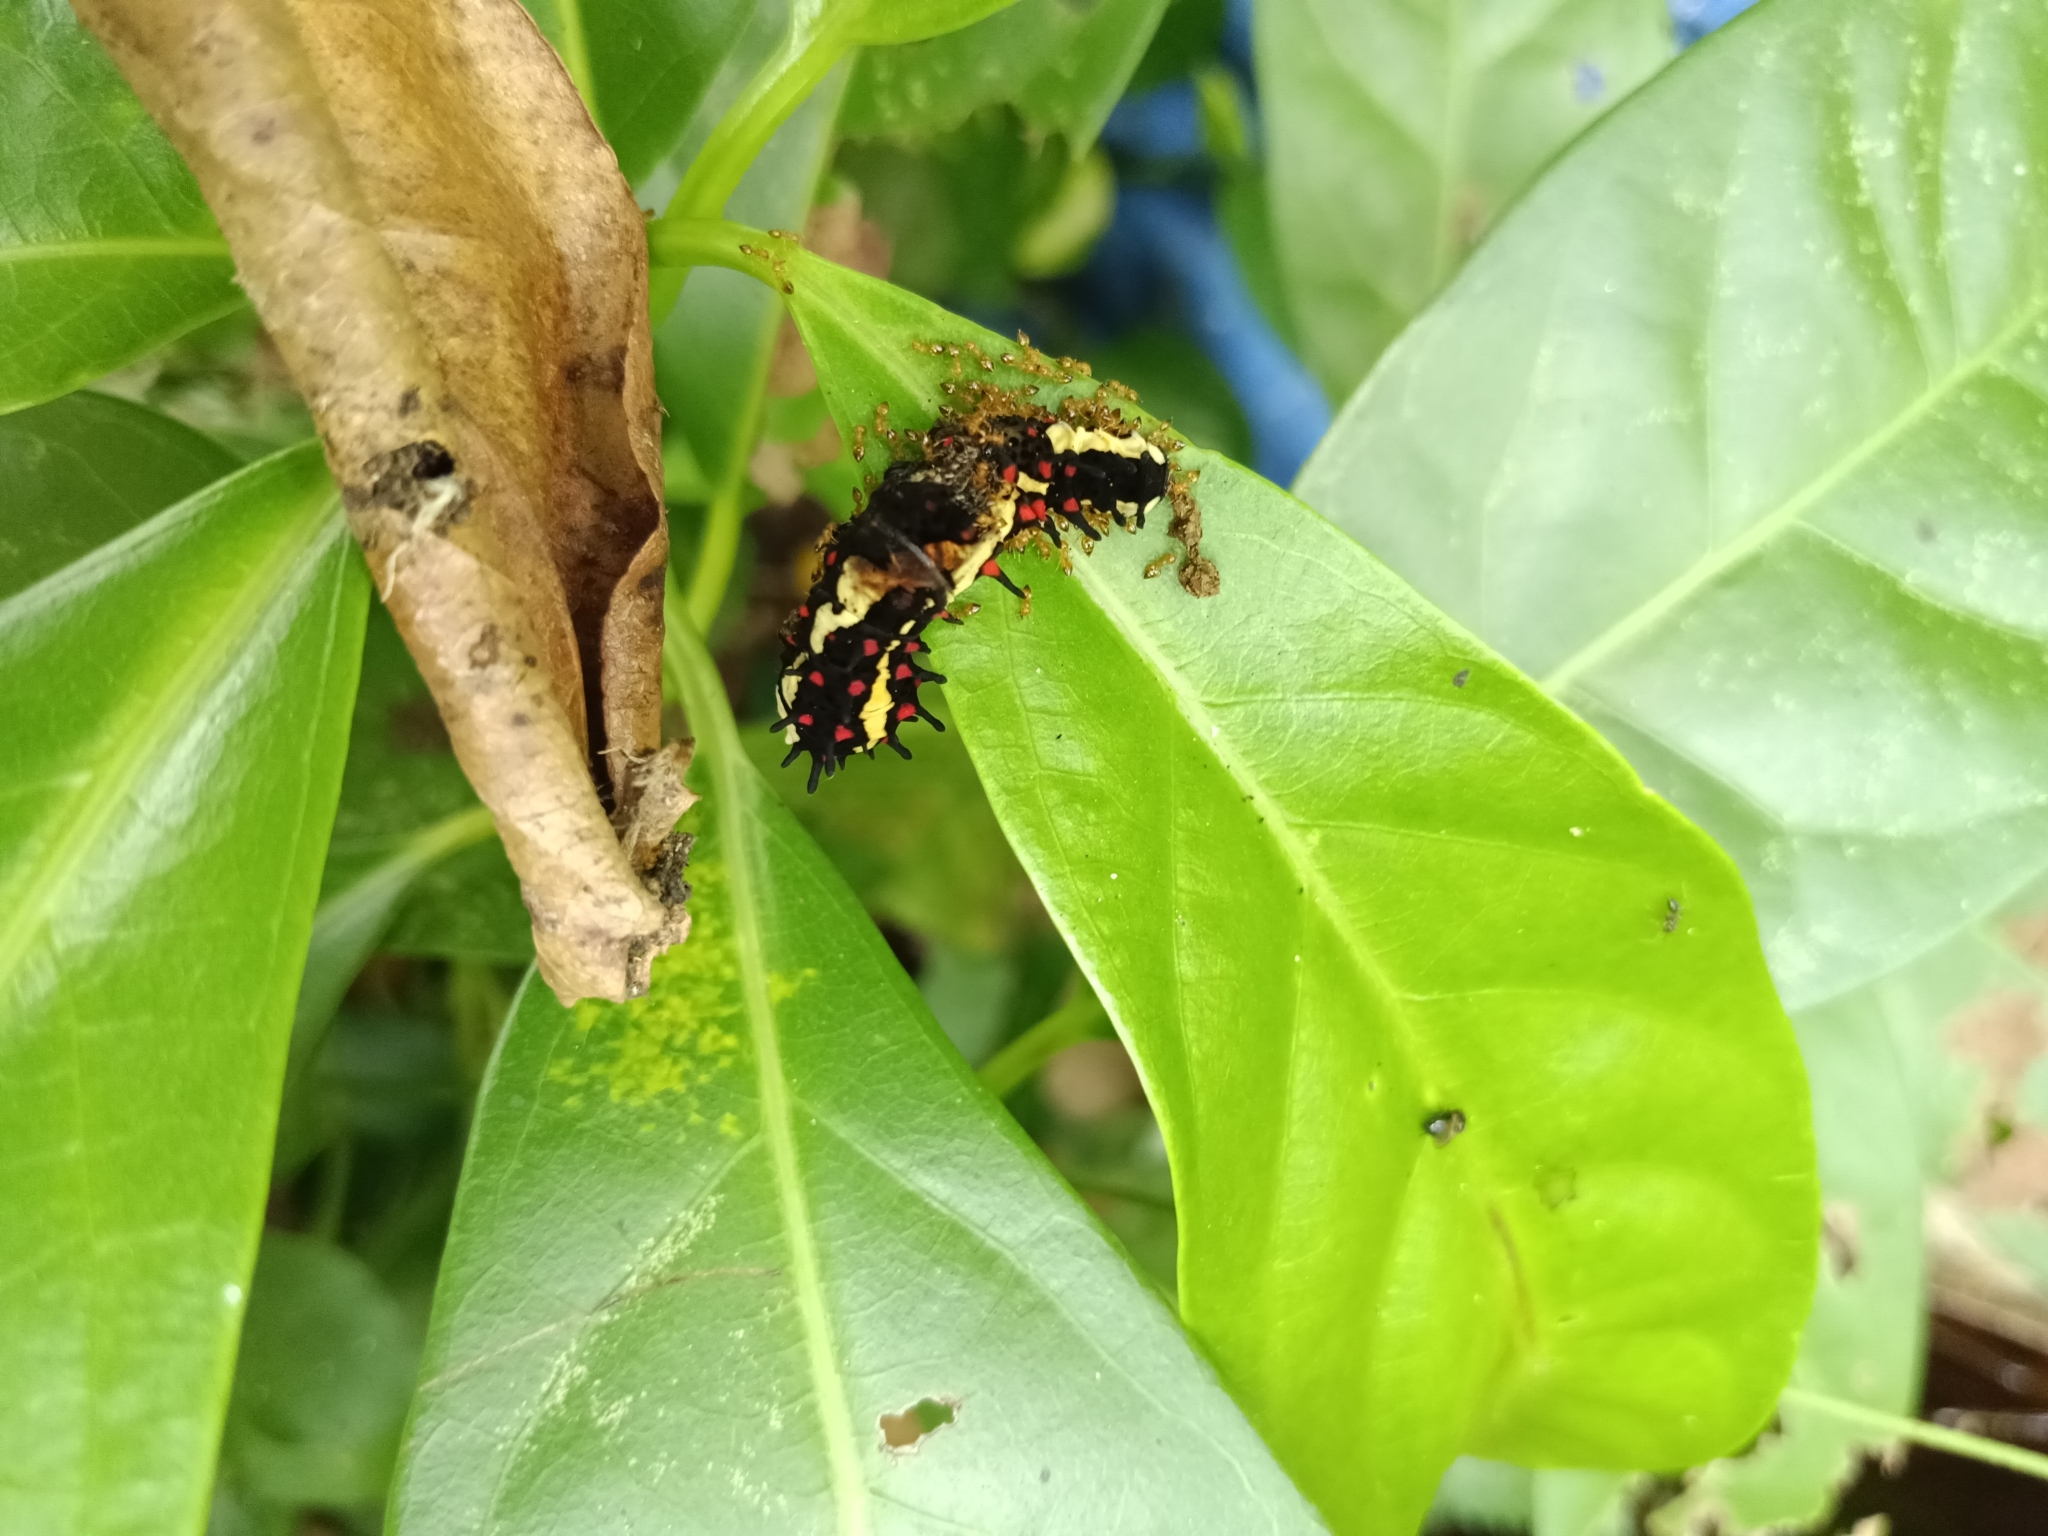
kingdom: Animalia
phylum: Arthropoda
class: Insecta
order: Lepidoptera
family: Papilionidae
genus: Chilasa
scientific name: Chilasa clytia
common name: Common mime
